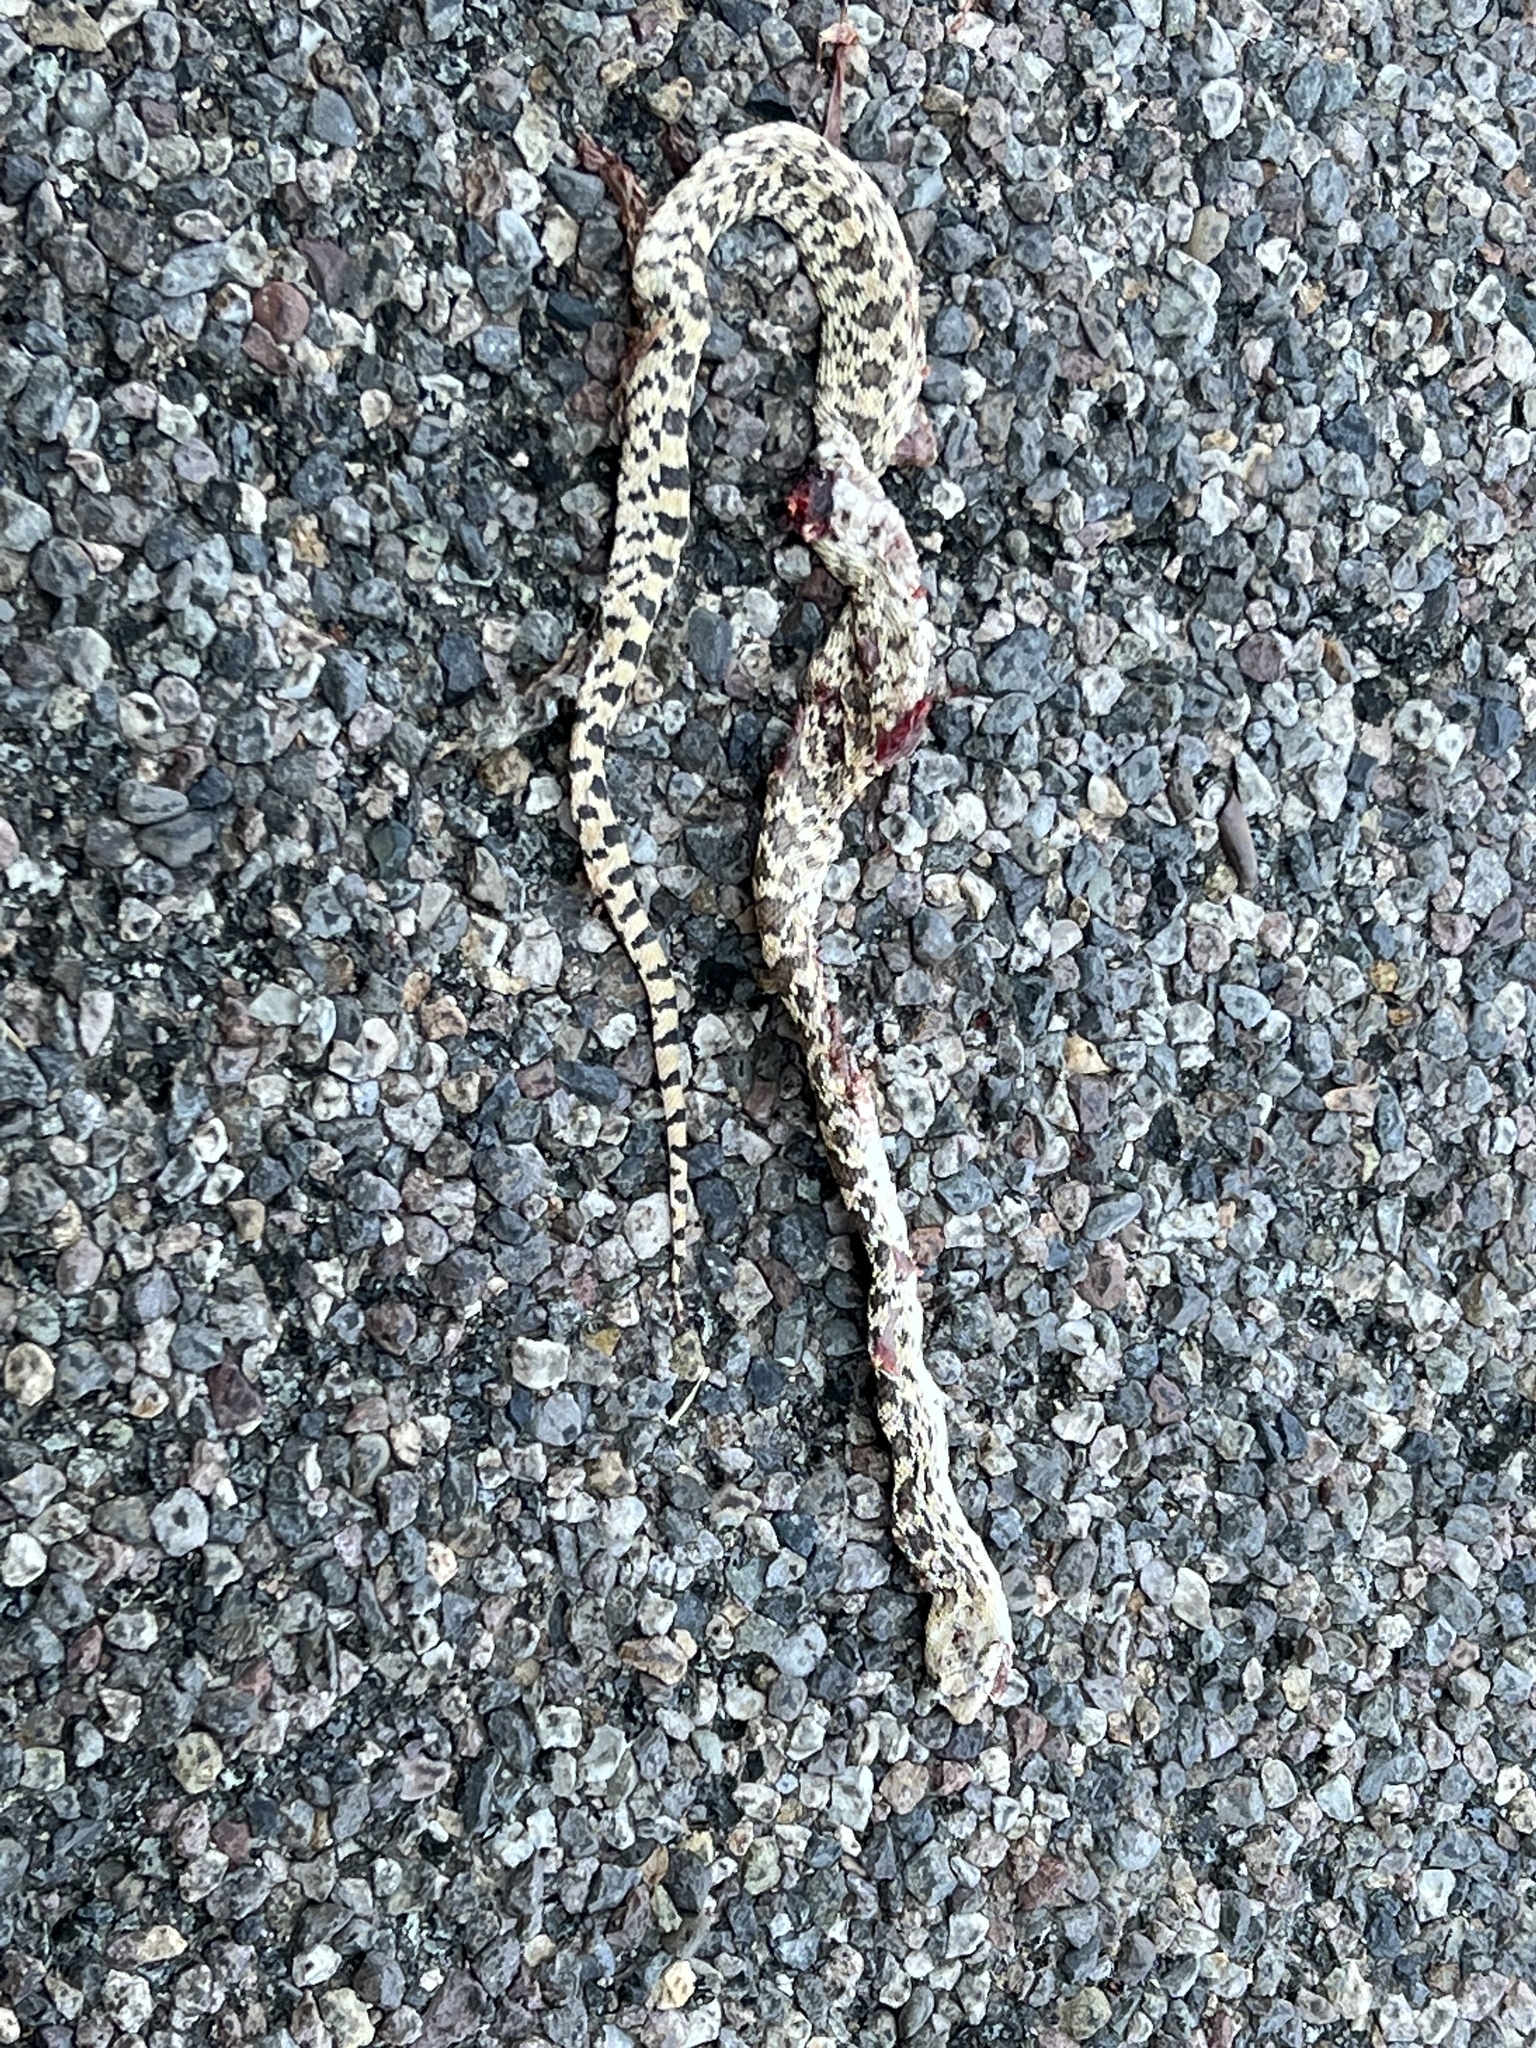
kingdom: Animalia
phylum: Chordata
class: Squamata
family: Colubridae
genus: Pituophis
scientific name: Pituophis catenifer
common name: Gopher snake
